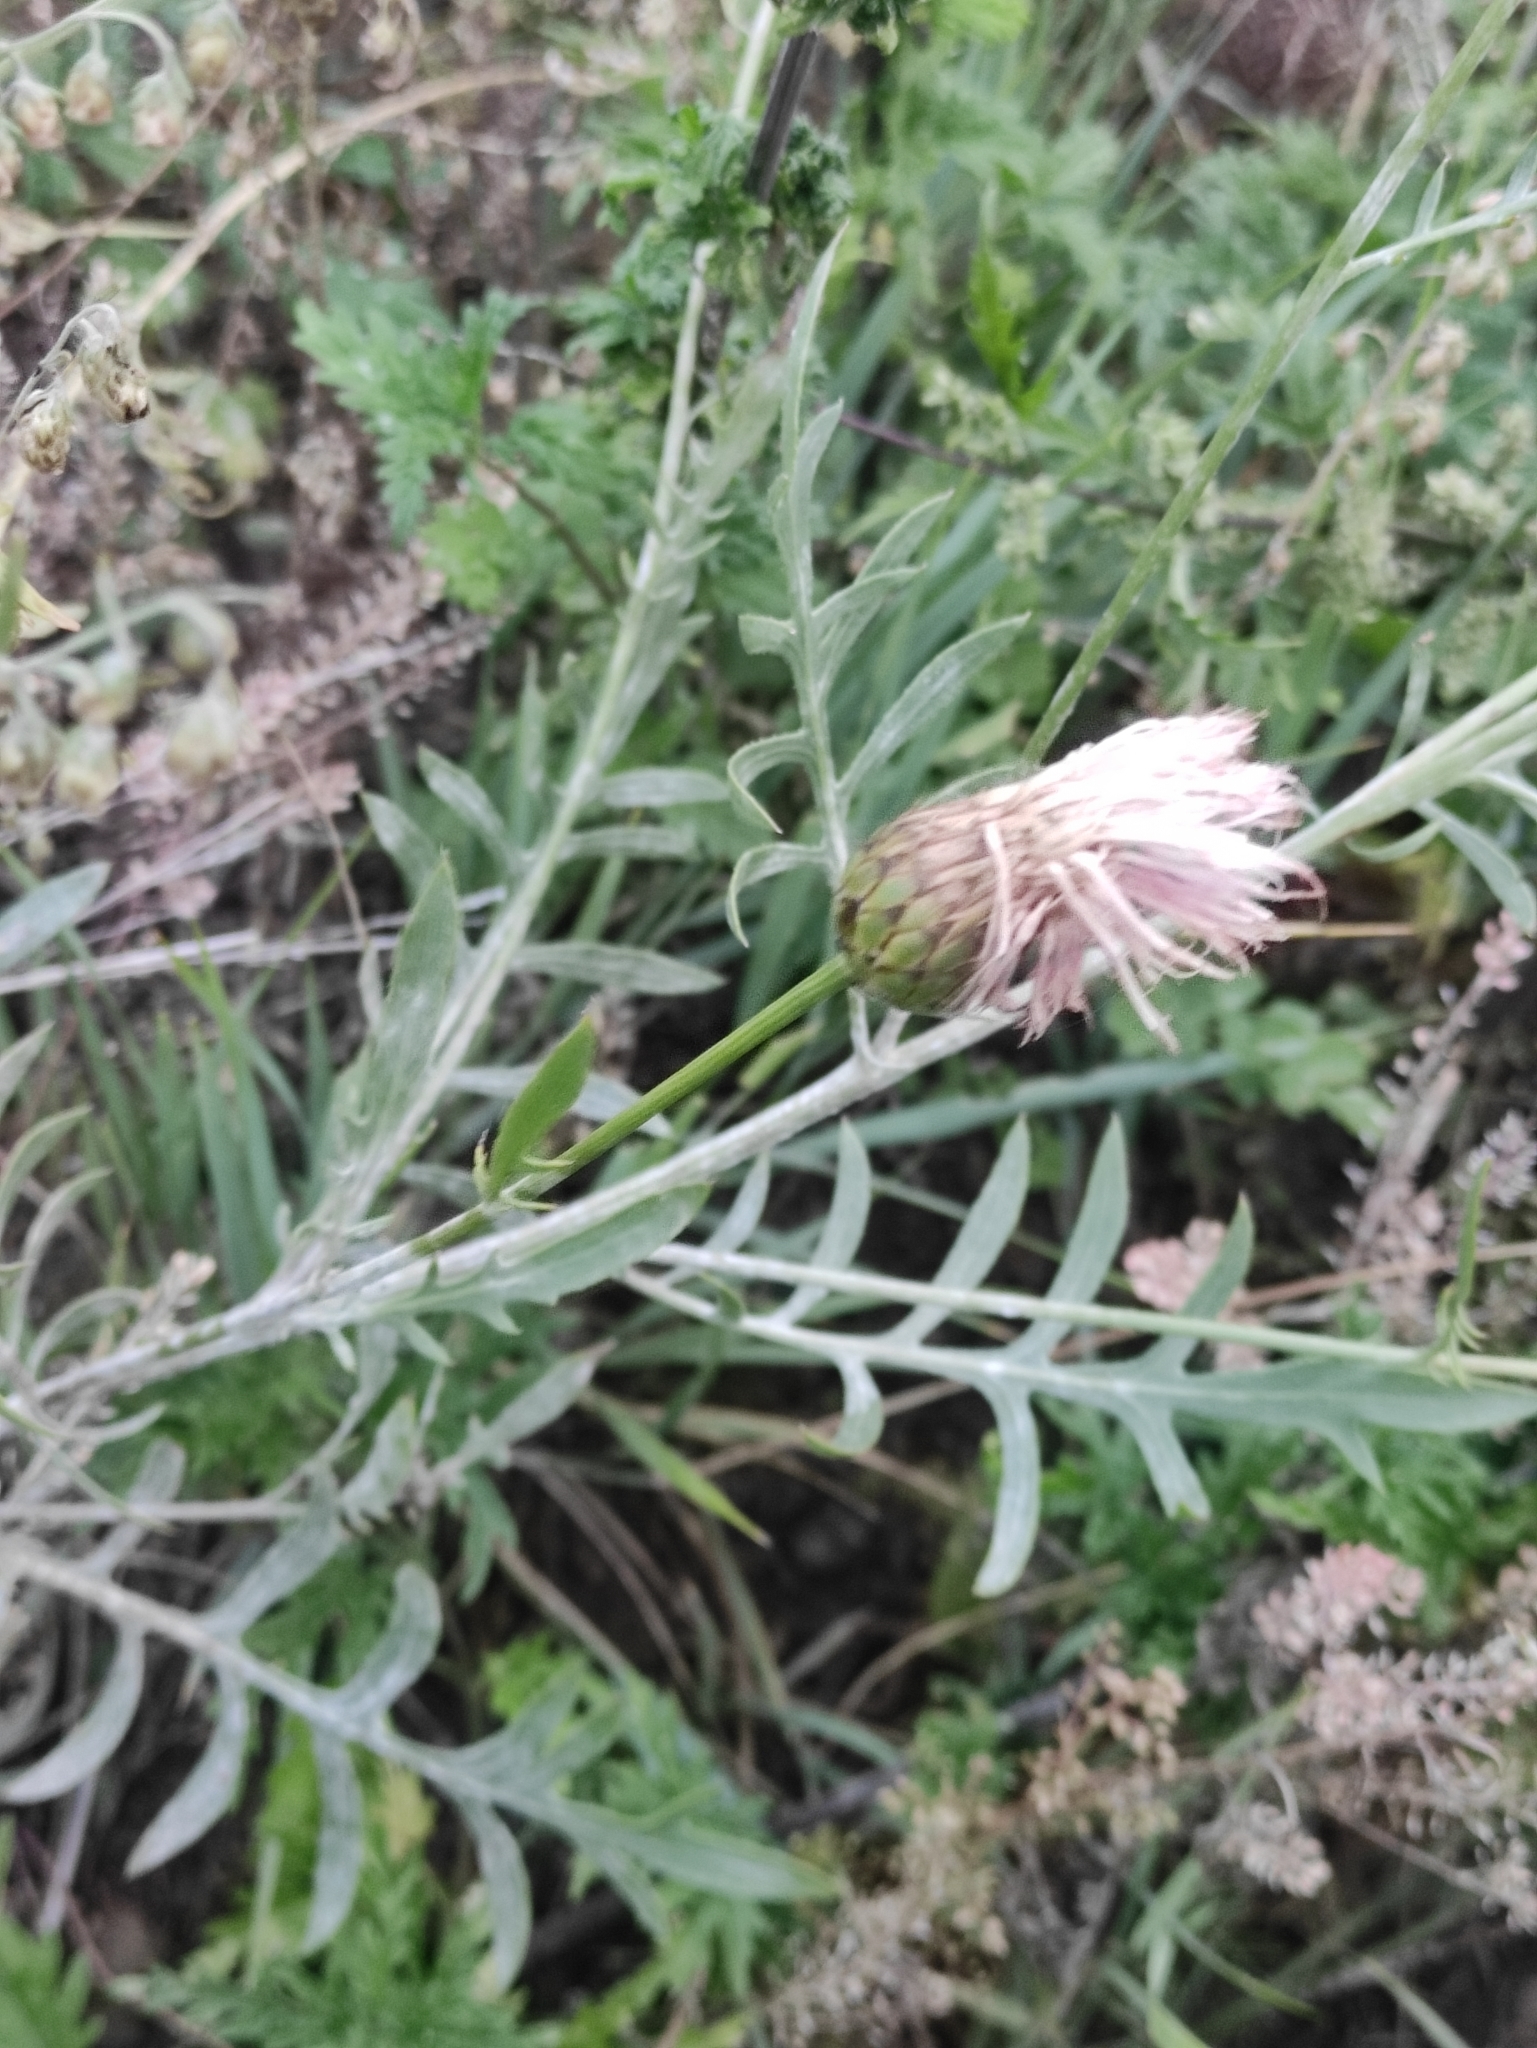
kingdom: Plantae
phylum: Tracheophyta
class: Magnoliopsida
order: Asterales
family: Asteraceae
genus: Klasea
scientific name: Klasea centauroides
